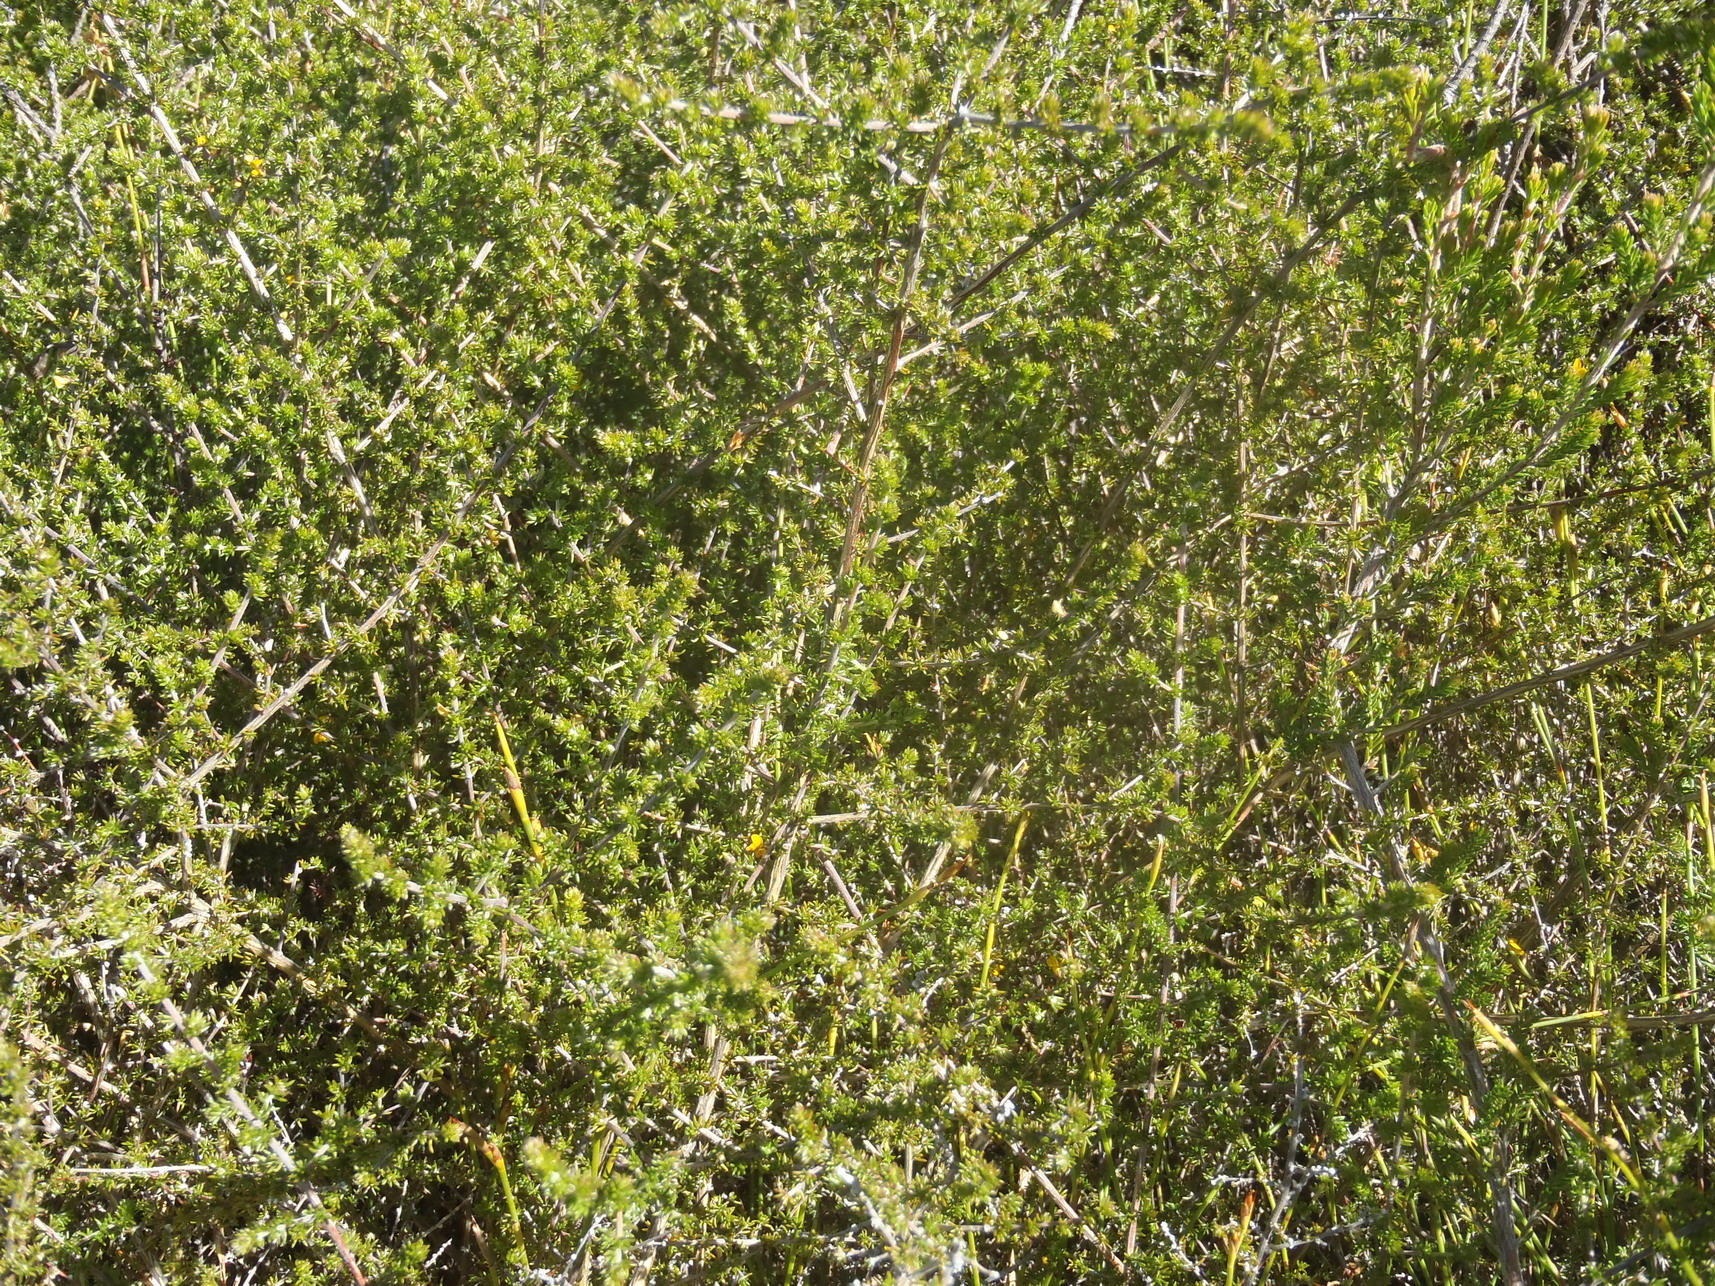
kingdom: Plantae
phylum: Tracheophyta
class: Magnoliopsida
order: Fabales
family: Fabaceae
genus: Aspalathus
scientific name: Aspalathus rubens
